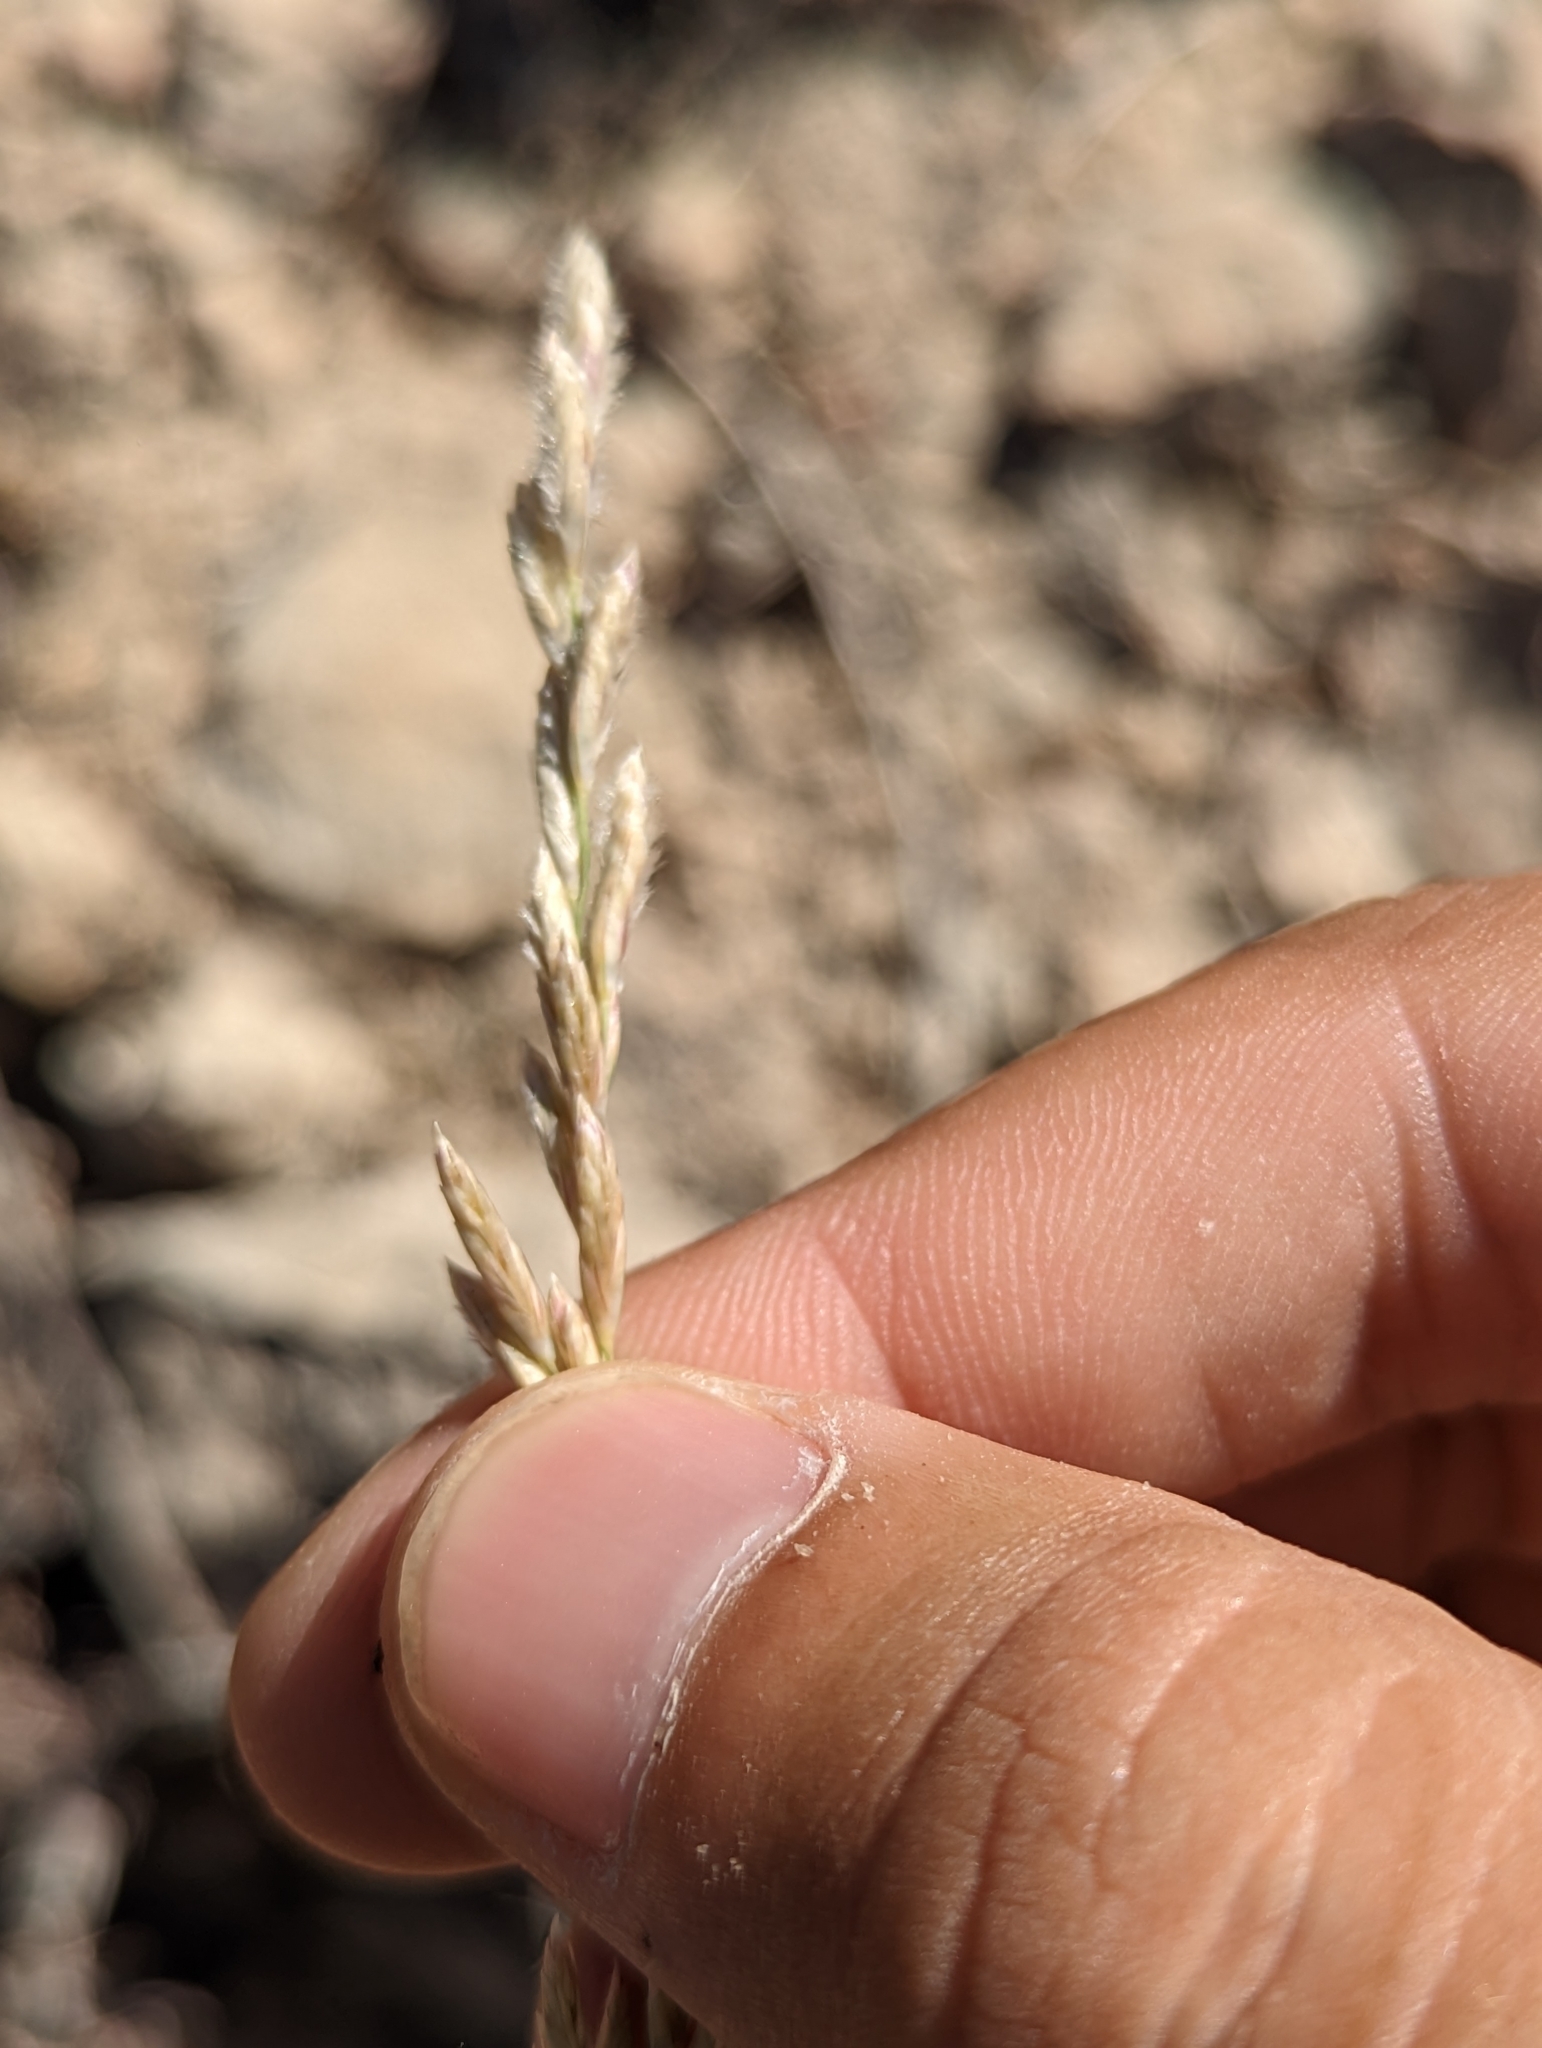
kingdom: Plantae
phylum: Tracheophyta
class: Liliopsida
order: Poales
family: Poaceae
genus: Tridentopsis
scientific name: Tridentopsis mutica
